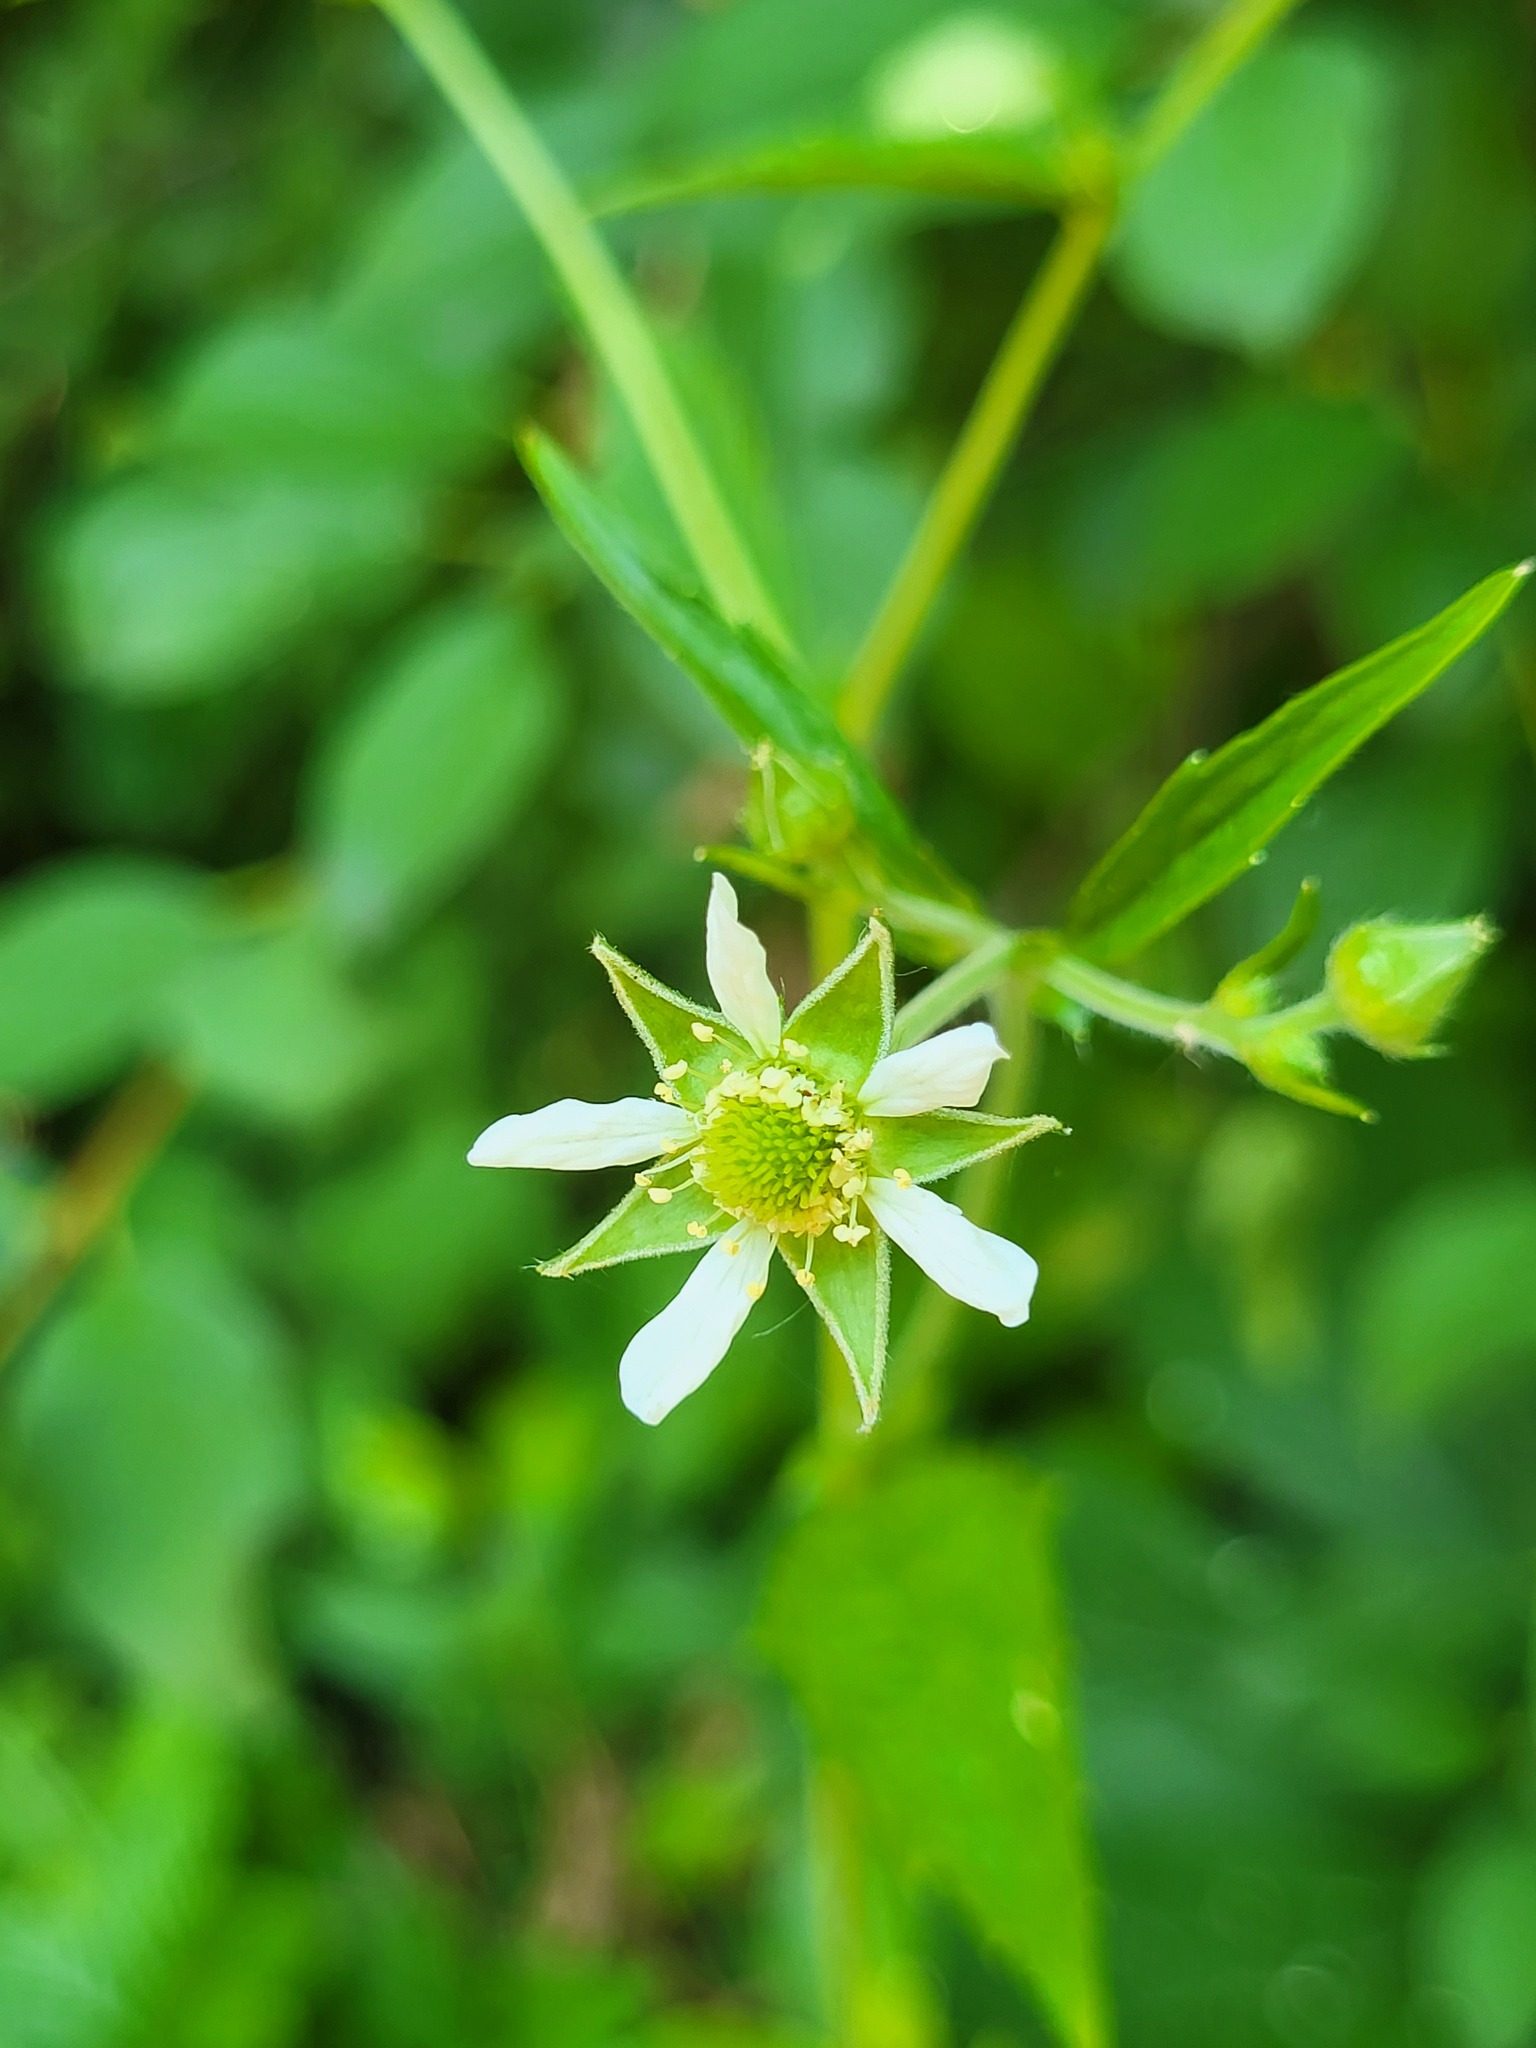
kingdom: Plantae
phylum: Tracheophyta
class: Magnoliopsida
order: Rosales
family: Rosaceae
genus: Geum
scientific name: Geum canadense
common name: White avens
